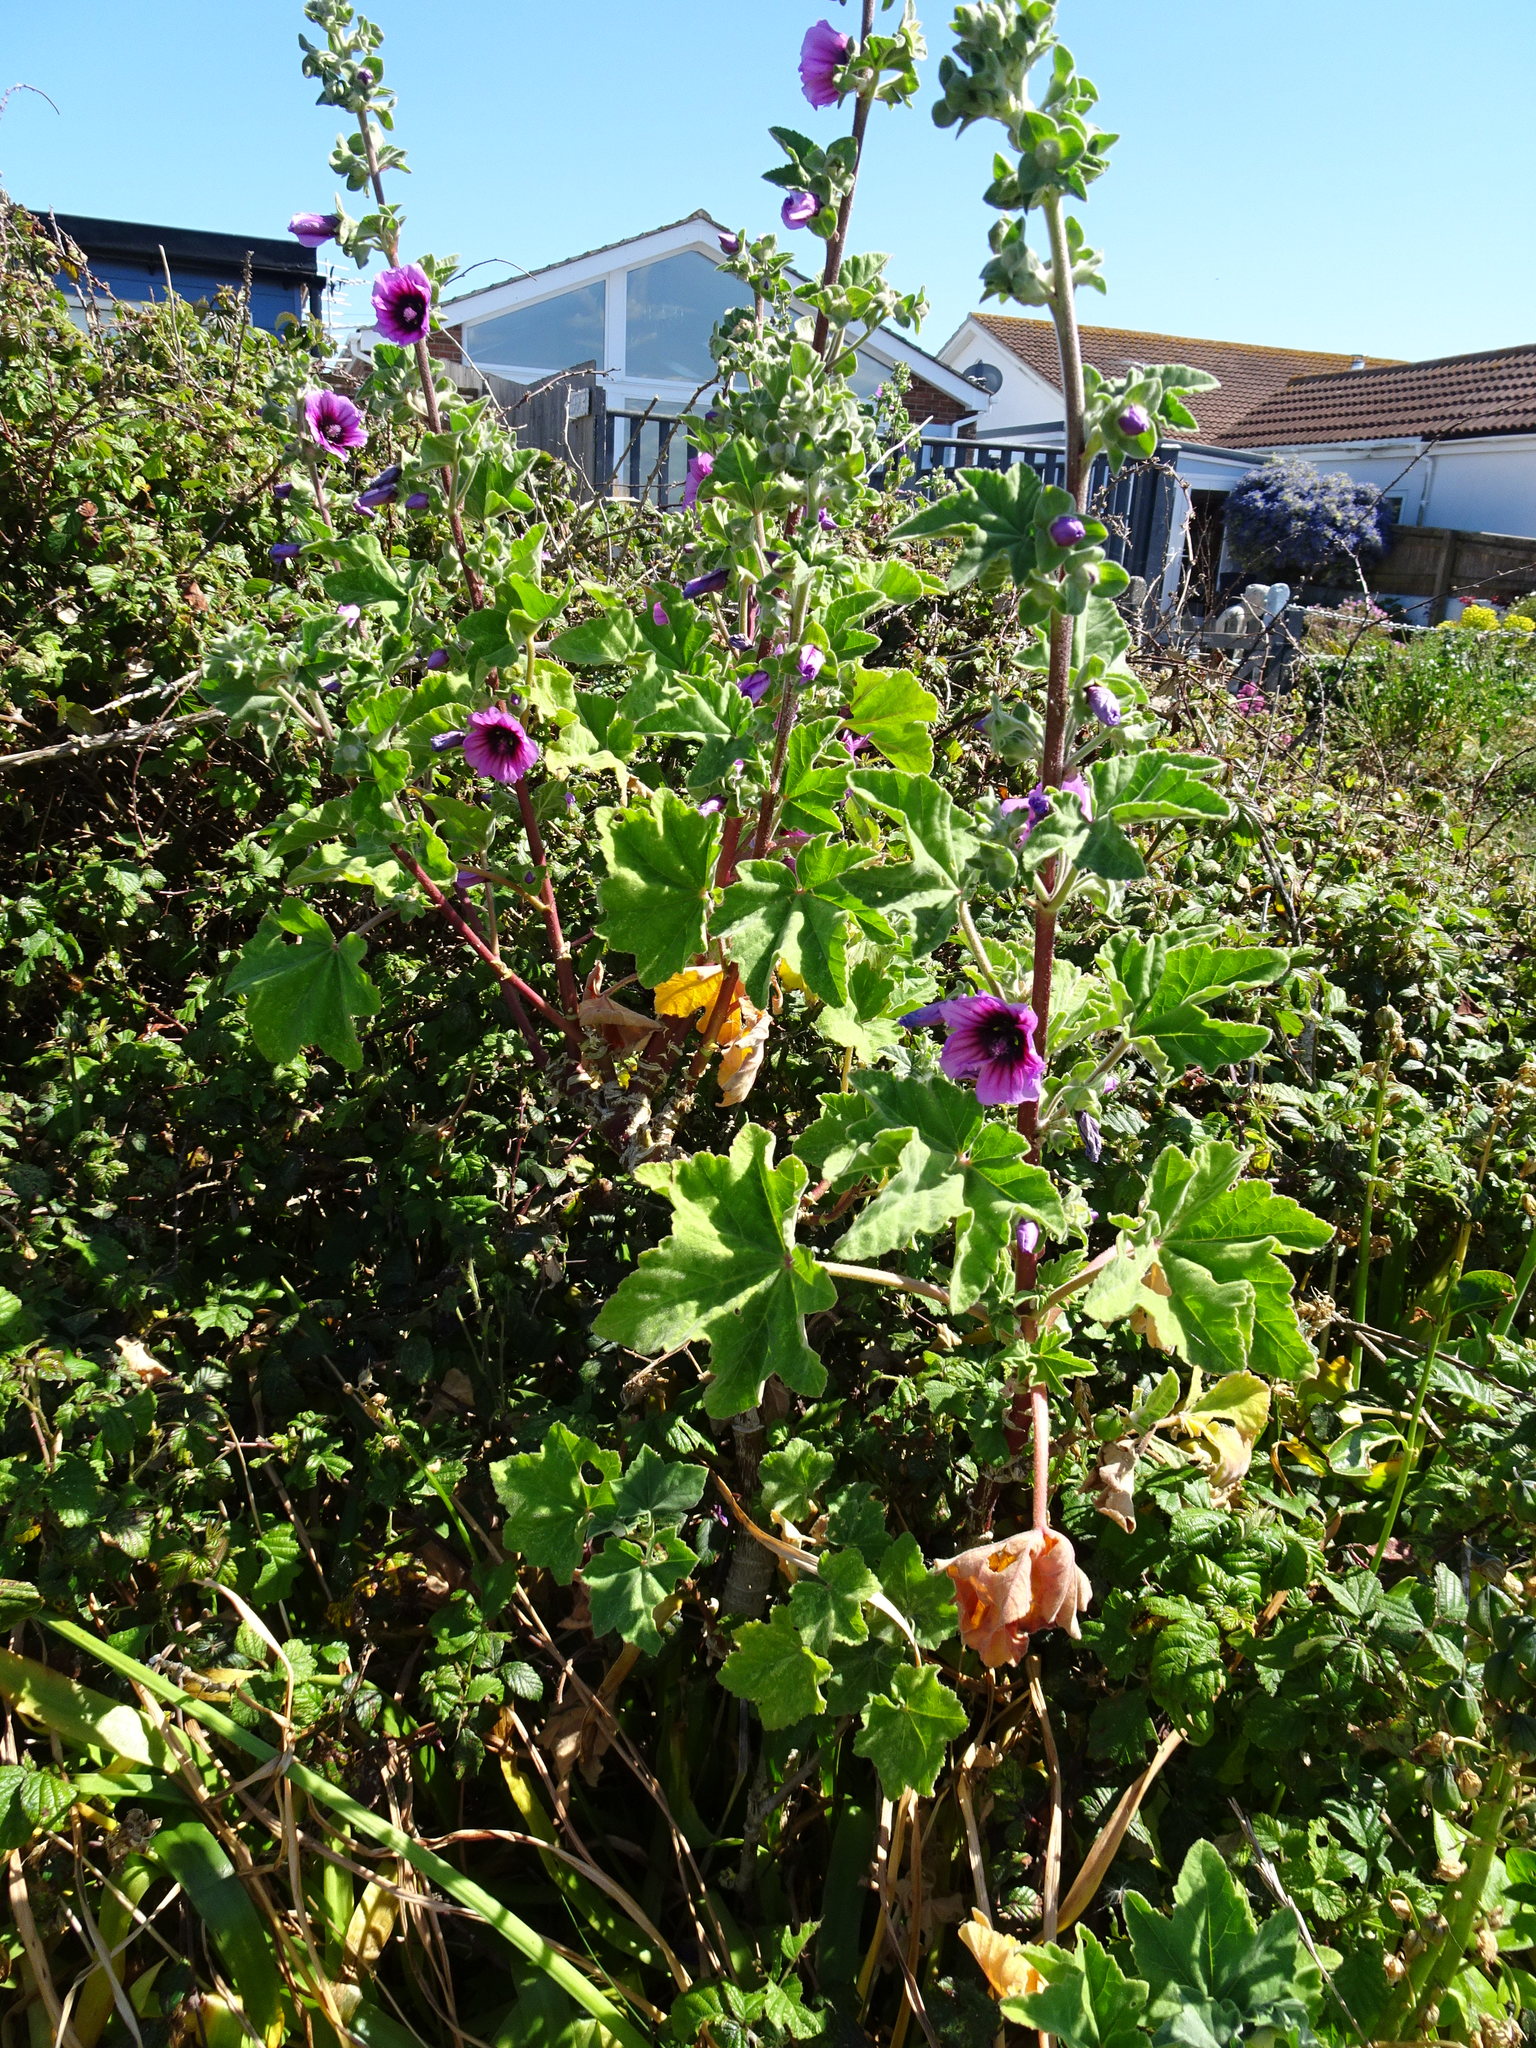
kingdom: Plantae
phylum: Tracheophyta
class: Magnoliopsida
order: Malvales
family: Malvaceae
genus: Malva
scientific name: Malva arborea
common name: Tree mallow
